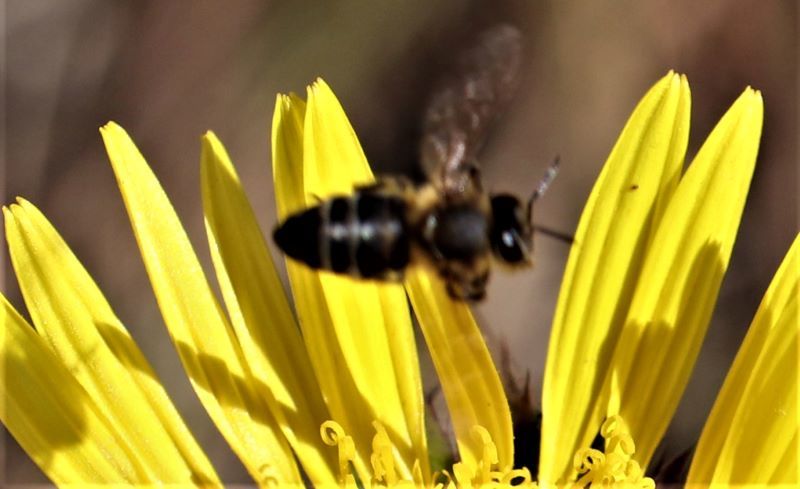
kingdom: Animalia
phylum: Arthropoda
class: Insecta
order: Hymenoptera
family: Apidae
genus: Apis
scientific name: Apis mellifera
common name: Honey bee
